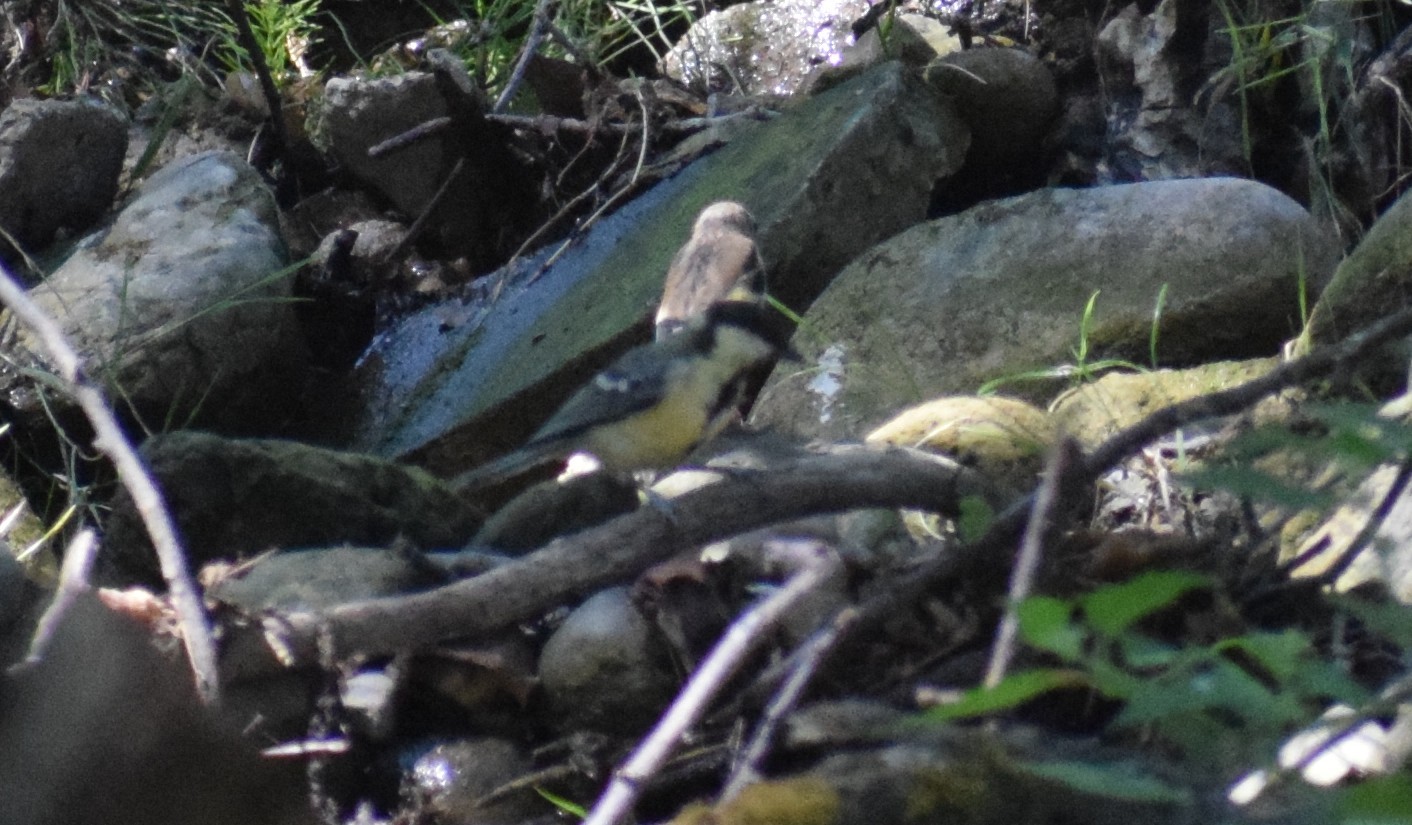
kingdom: Animalia
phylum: Chordata
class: Aves
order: Passeriformes
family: Paridae
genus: Parus
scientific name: Parus major
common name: Great tit
